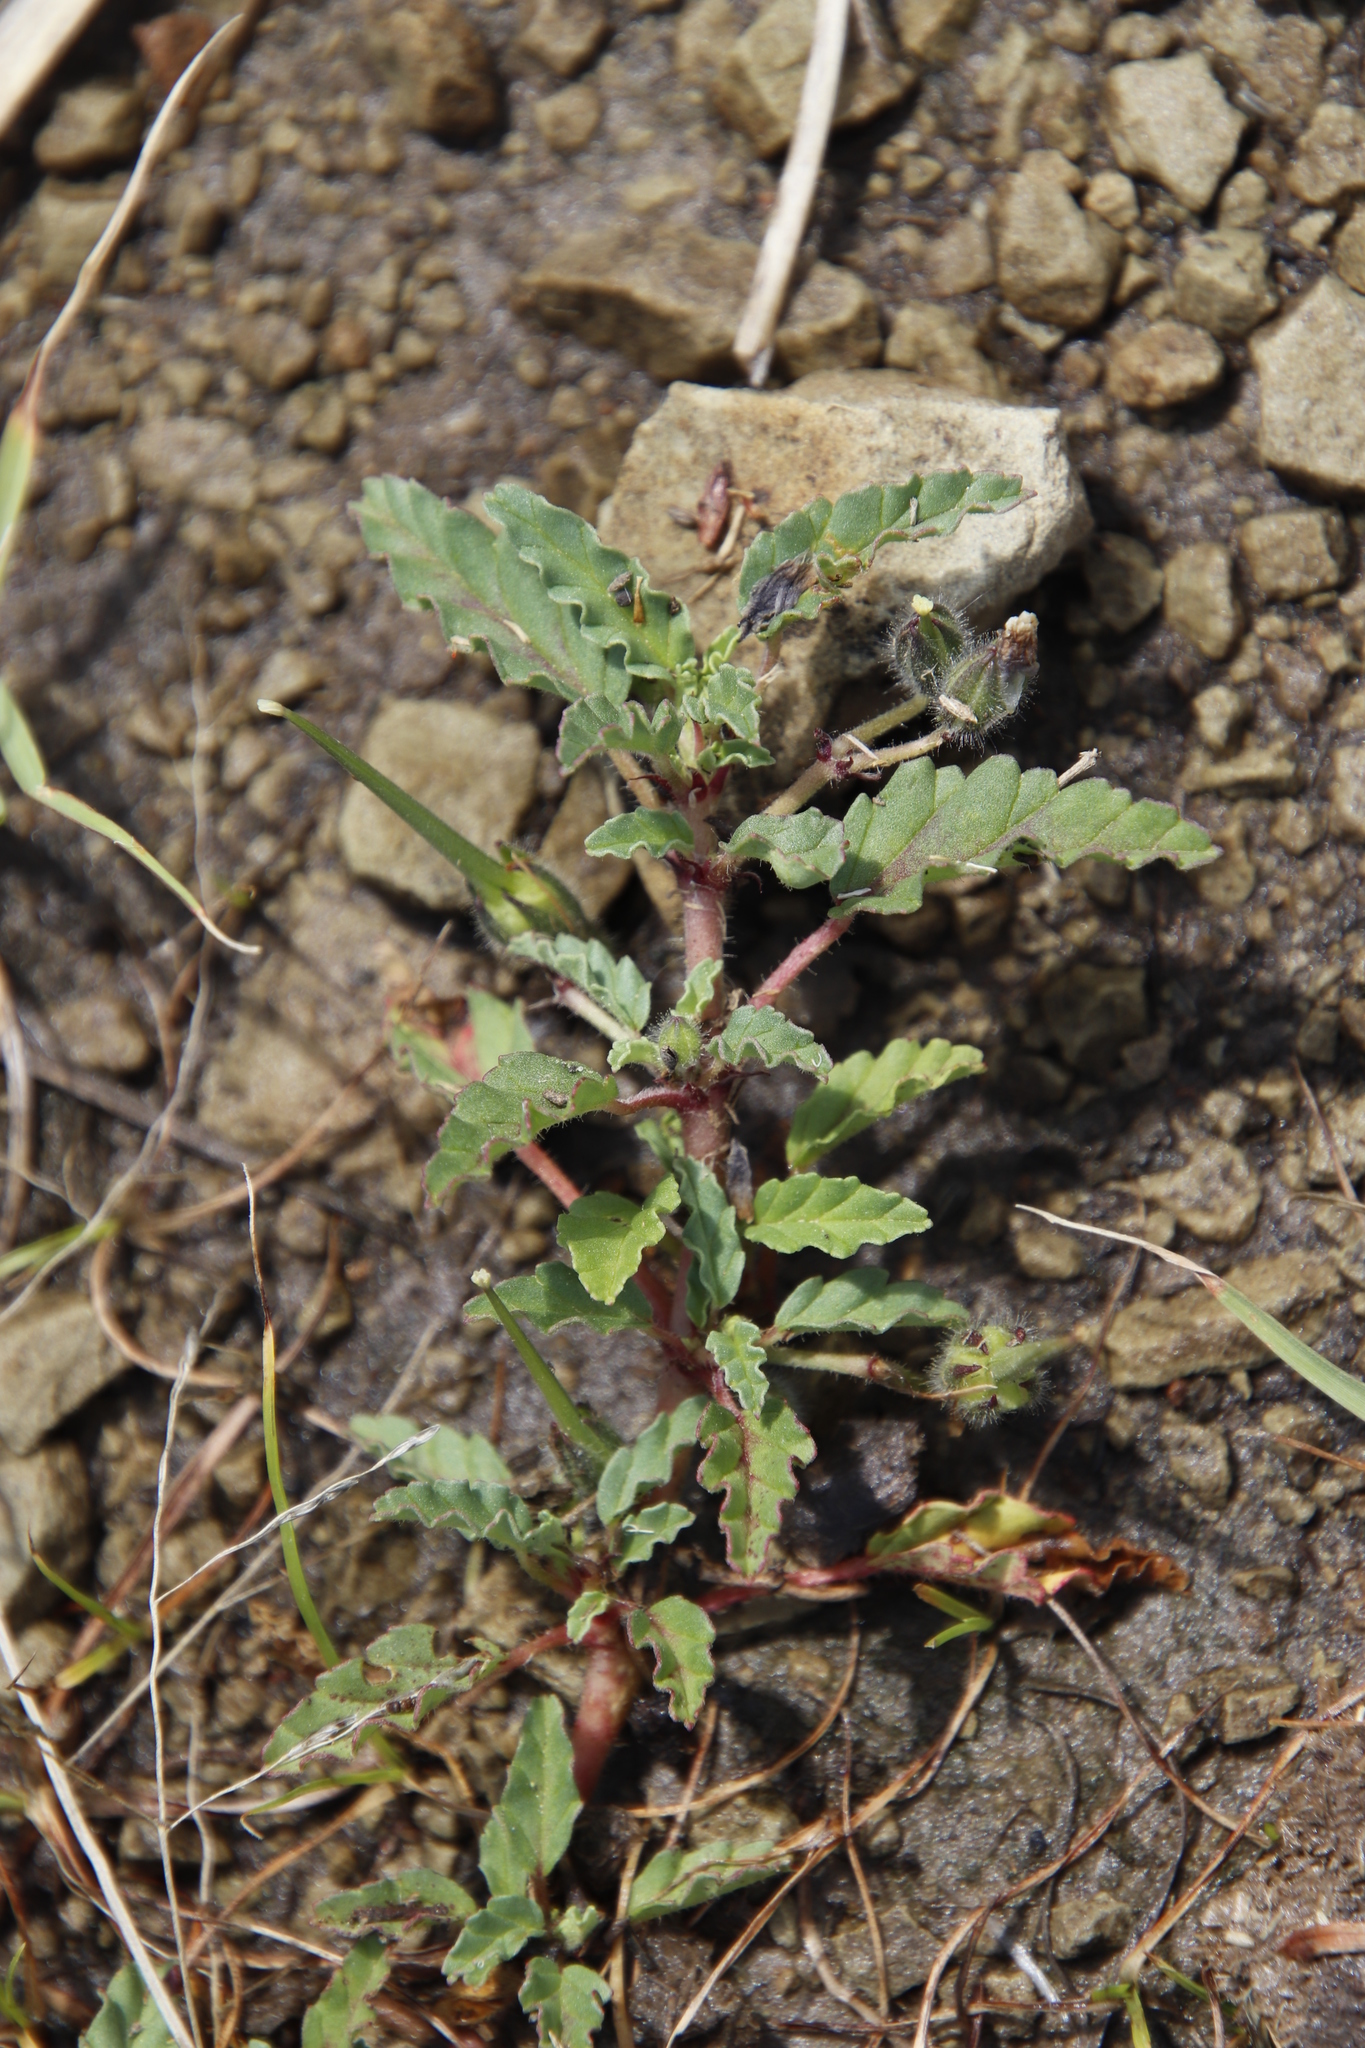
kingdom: Plantae
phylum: Tracheophyta
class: Magnoliopsida
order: Geraniales
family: Geraniaceae
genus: Monsonia
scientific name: Monsonia brevirostrata
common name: Short-fruited dysentery-herb
